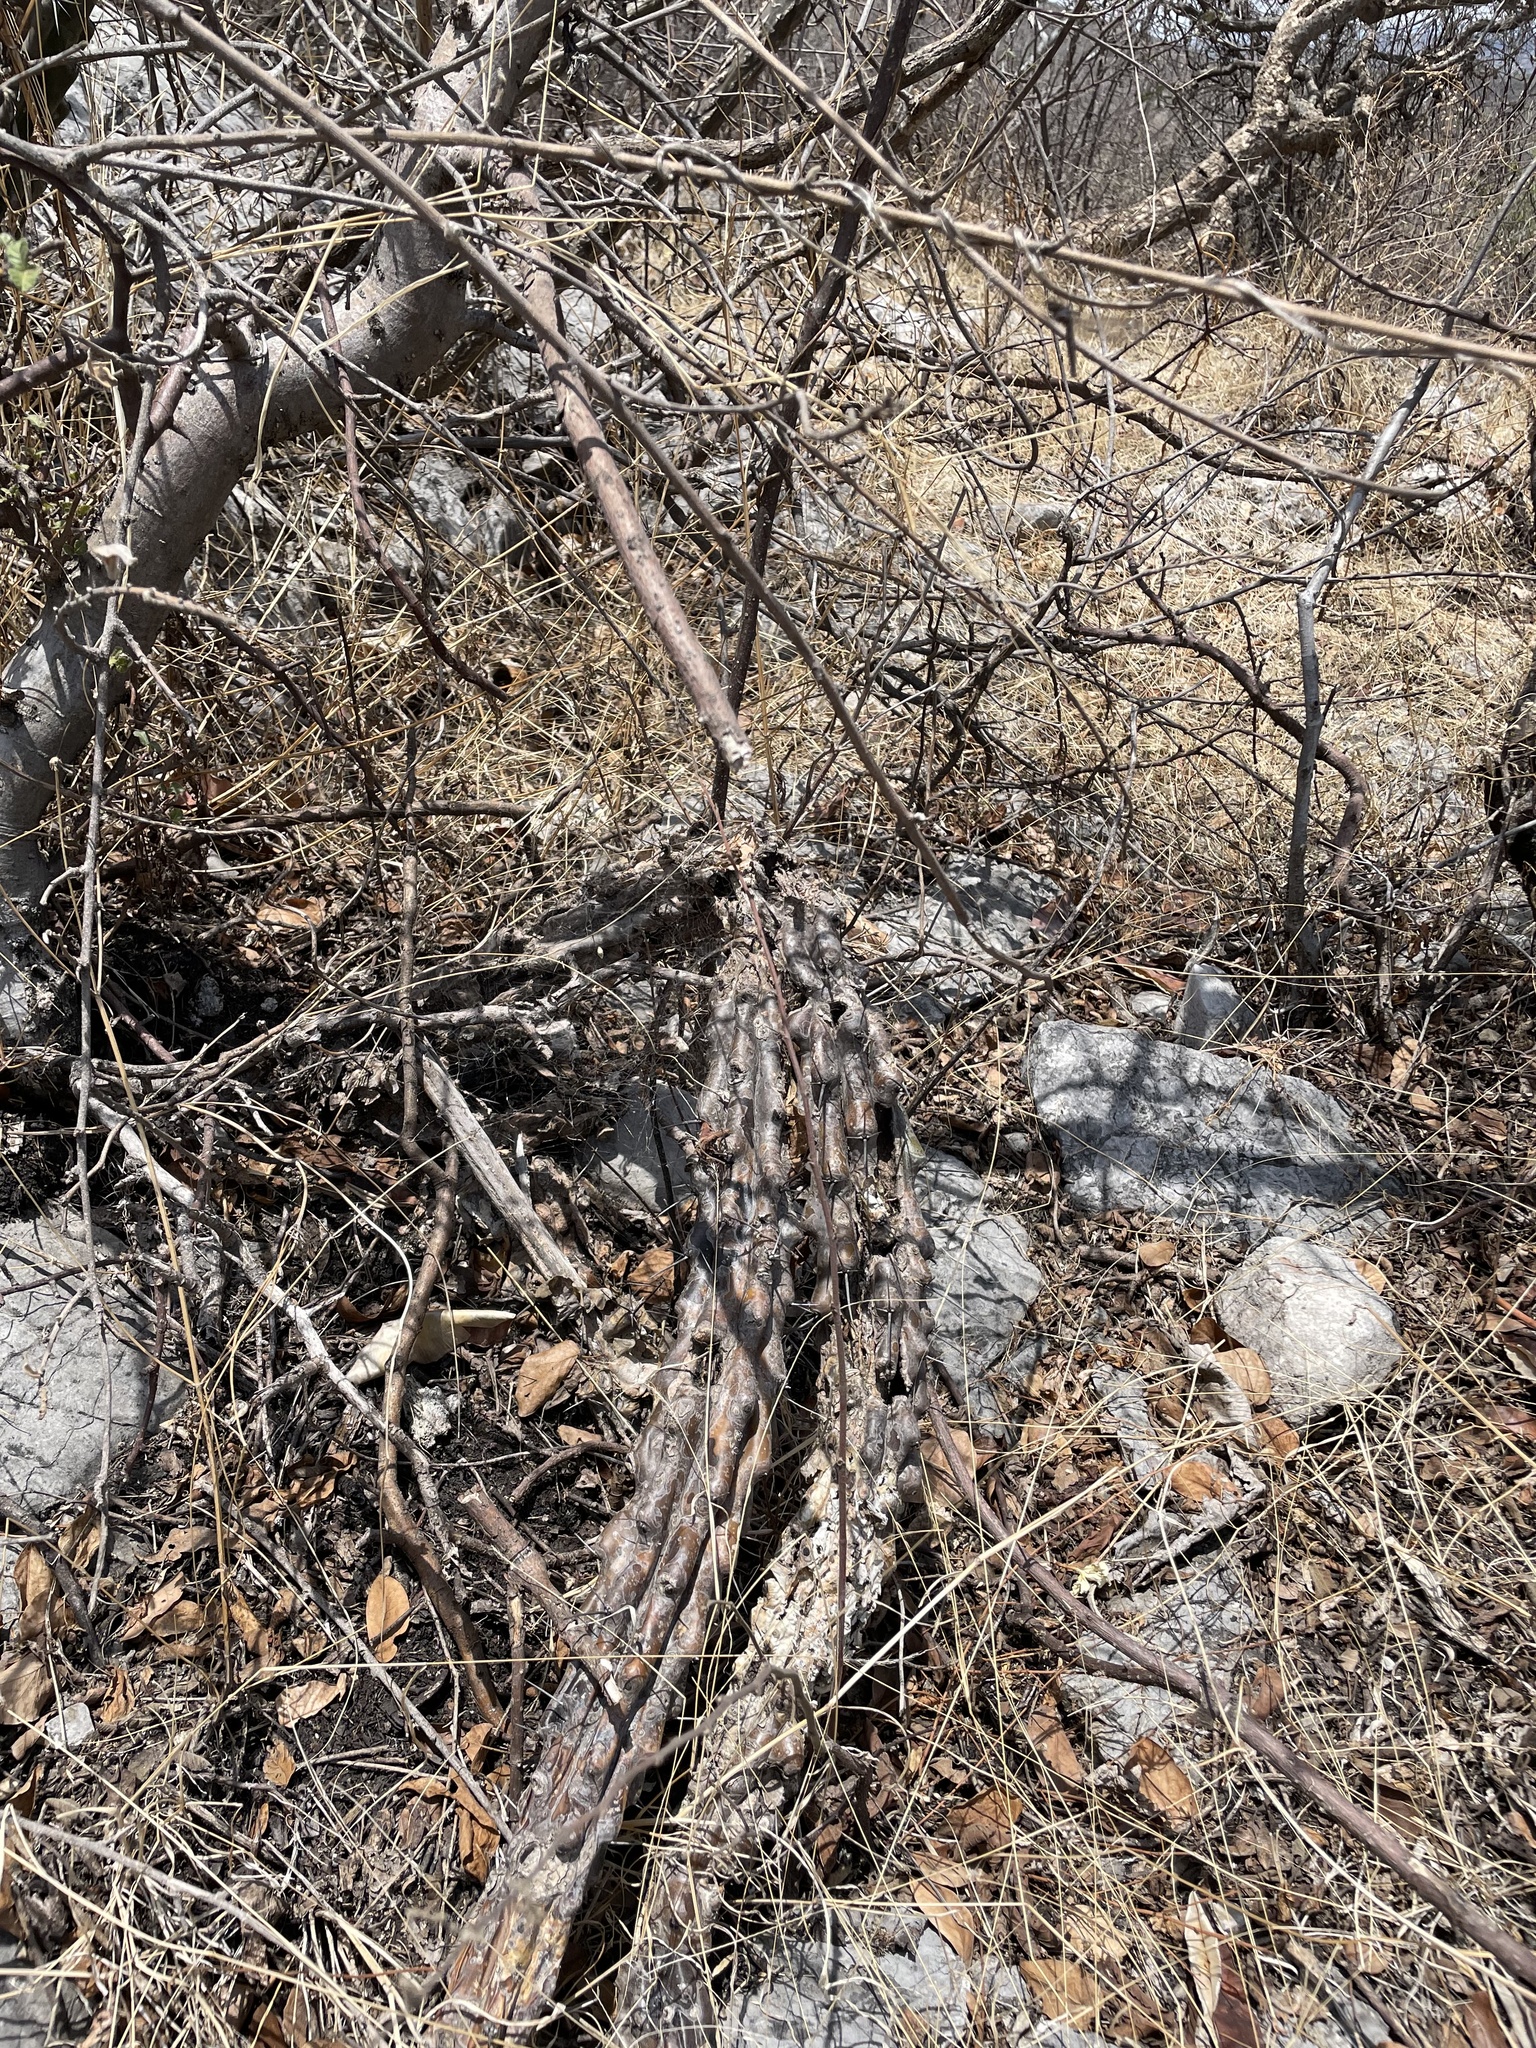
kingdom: Plantae
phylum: Tracheophyta
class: Magnoliopsida
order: Caryophyllales
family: Cactaceae
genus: Stenocereus
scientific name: Stenocereus beneckei
